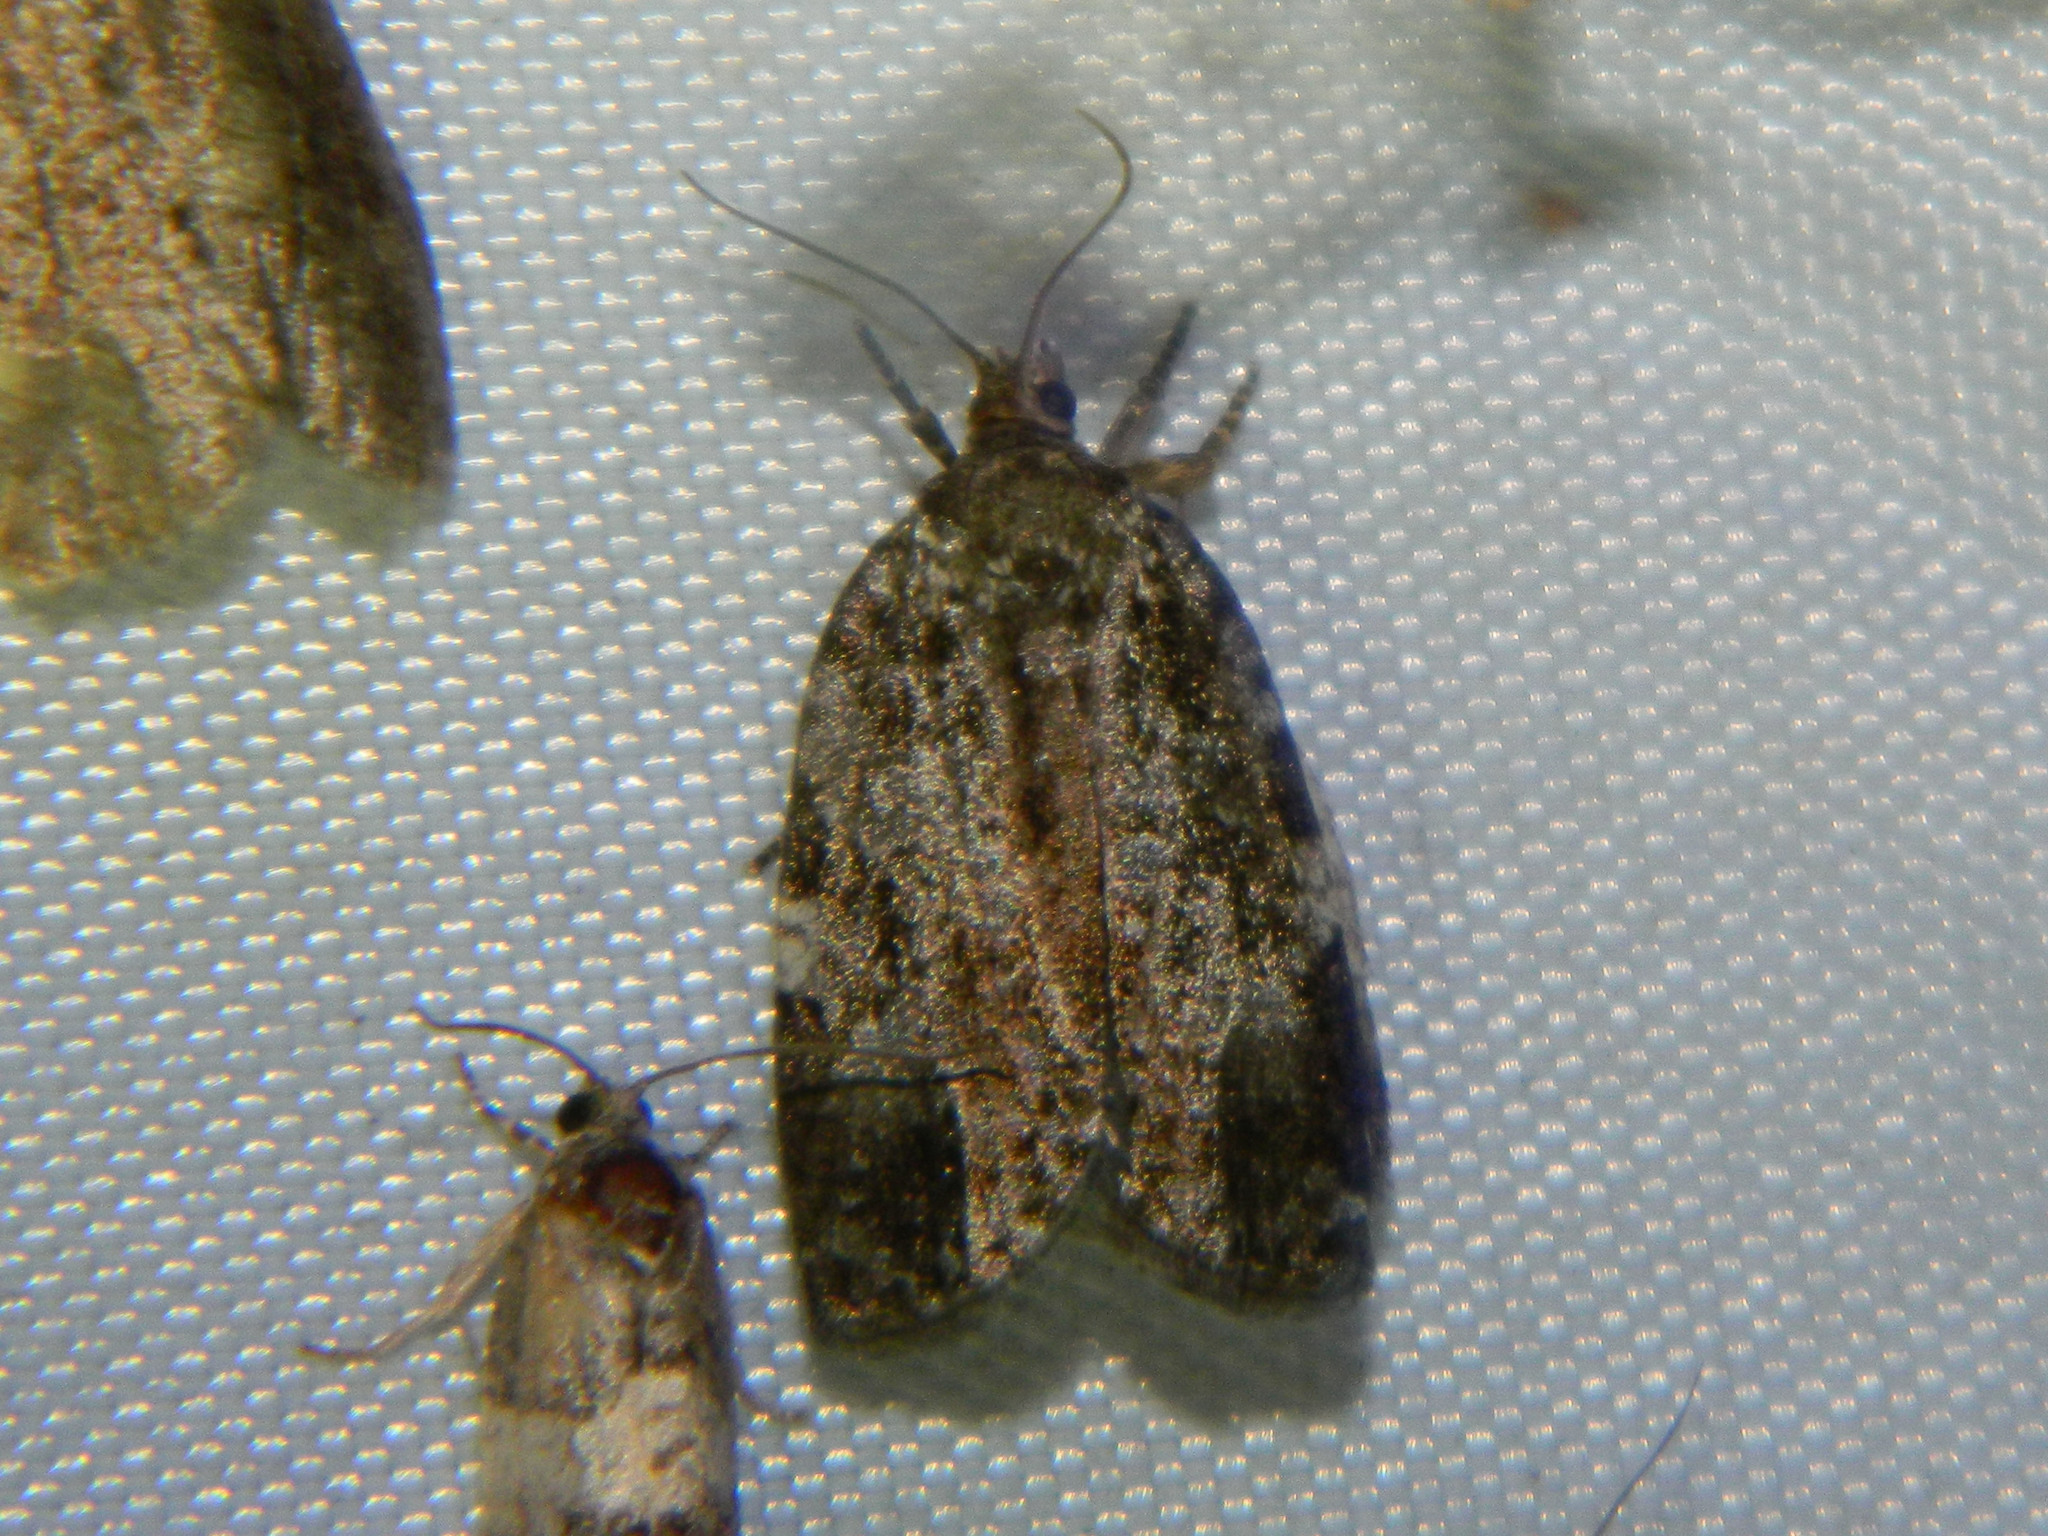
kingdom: Animalia
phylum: Arthropoda
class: Insecta
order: Lepidoptera
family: Tortricidae
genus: Choristoneura
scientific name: Choristoneura fumiferana
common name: Spruce budworm
